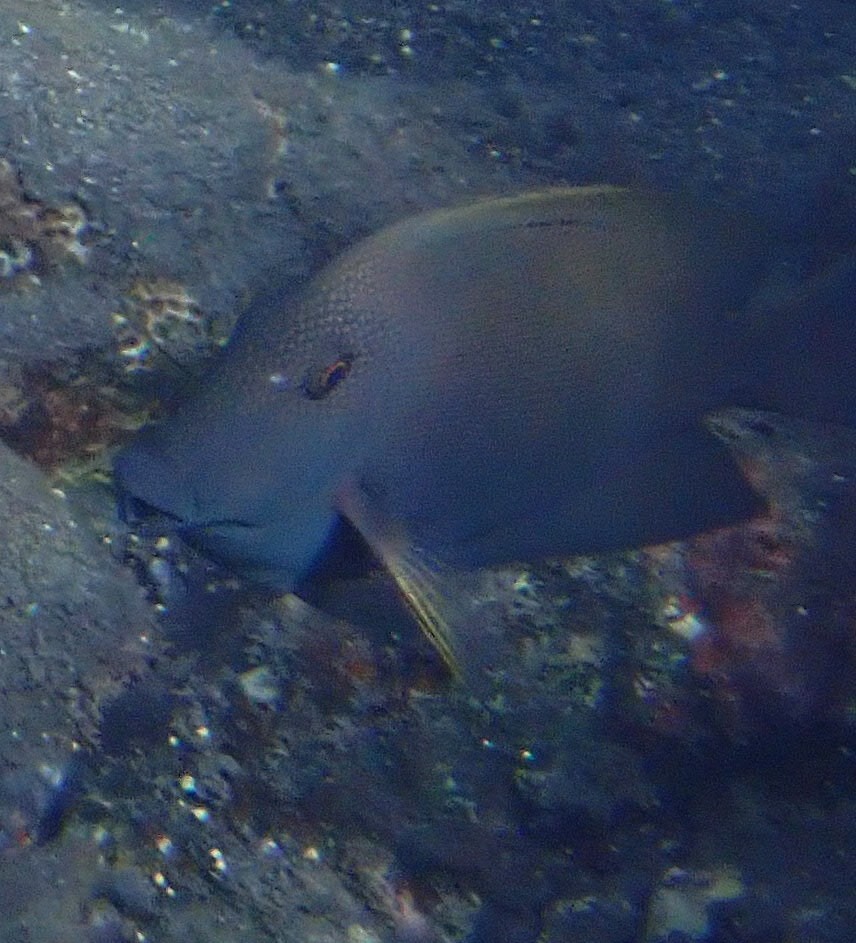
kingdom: Animalia
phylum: Chordata
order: Perciformes
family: Acanthuridae
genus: Ctenochaetus
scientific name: Ctenochaetus striatus
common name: Bristle-toothed surgeonfish
